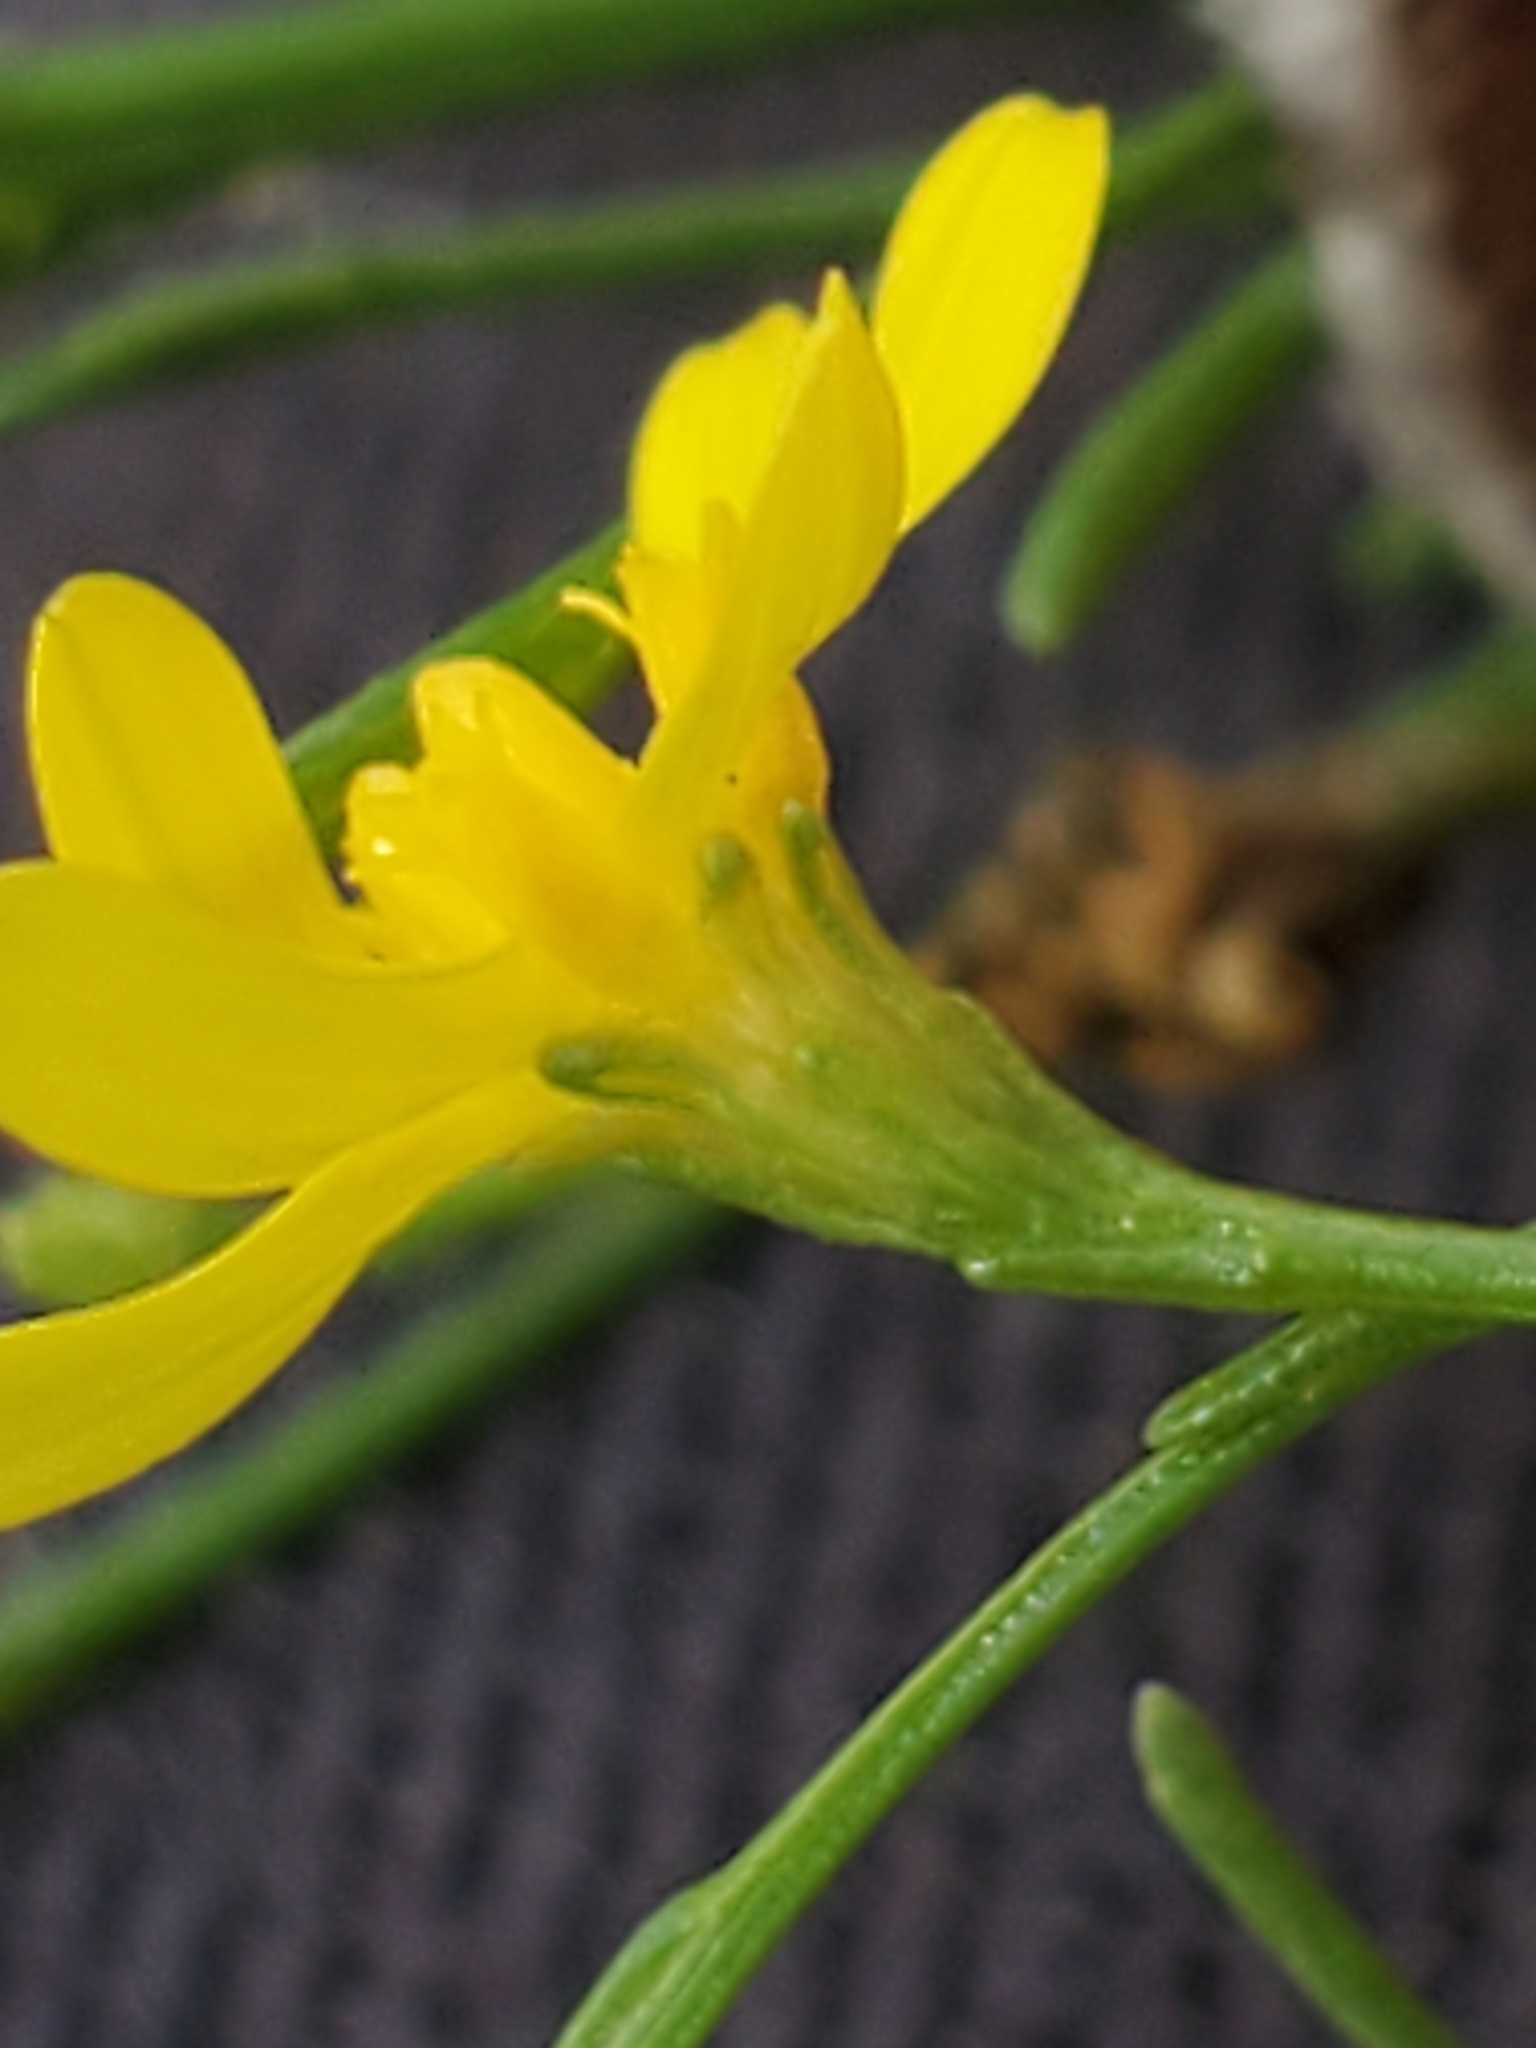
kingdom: Plantae
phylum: Tracheophyta
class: Magnoliopsida
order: Asterales
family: Asteraceae
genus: Gutierrezia
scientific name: Gutierrezia texana
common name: Texas snakeweed
